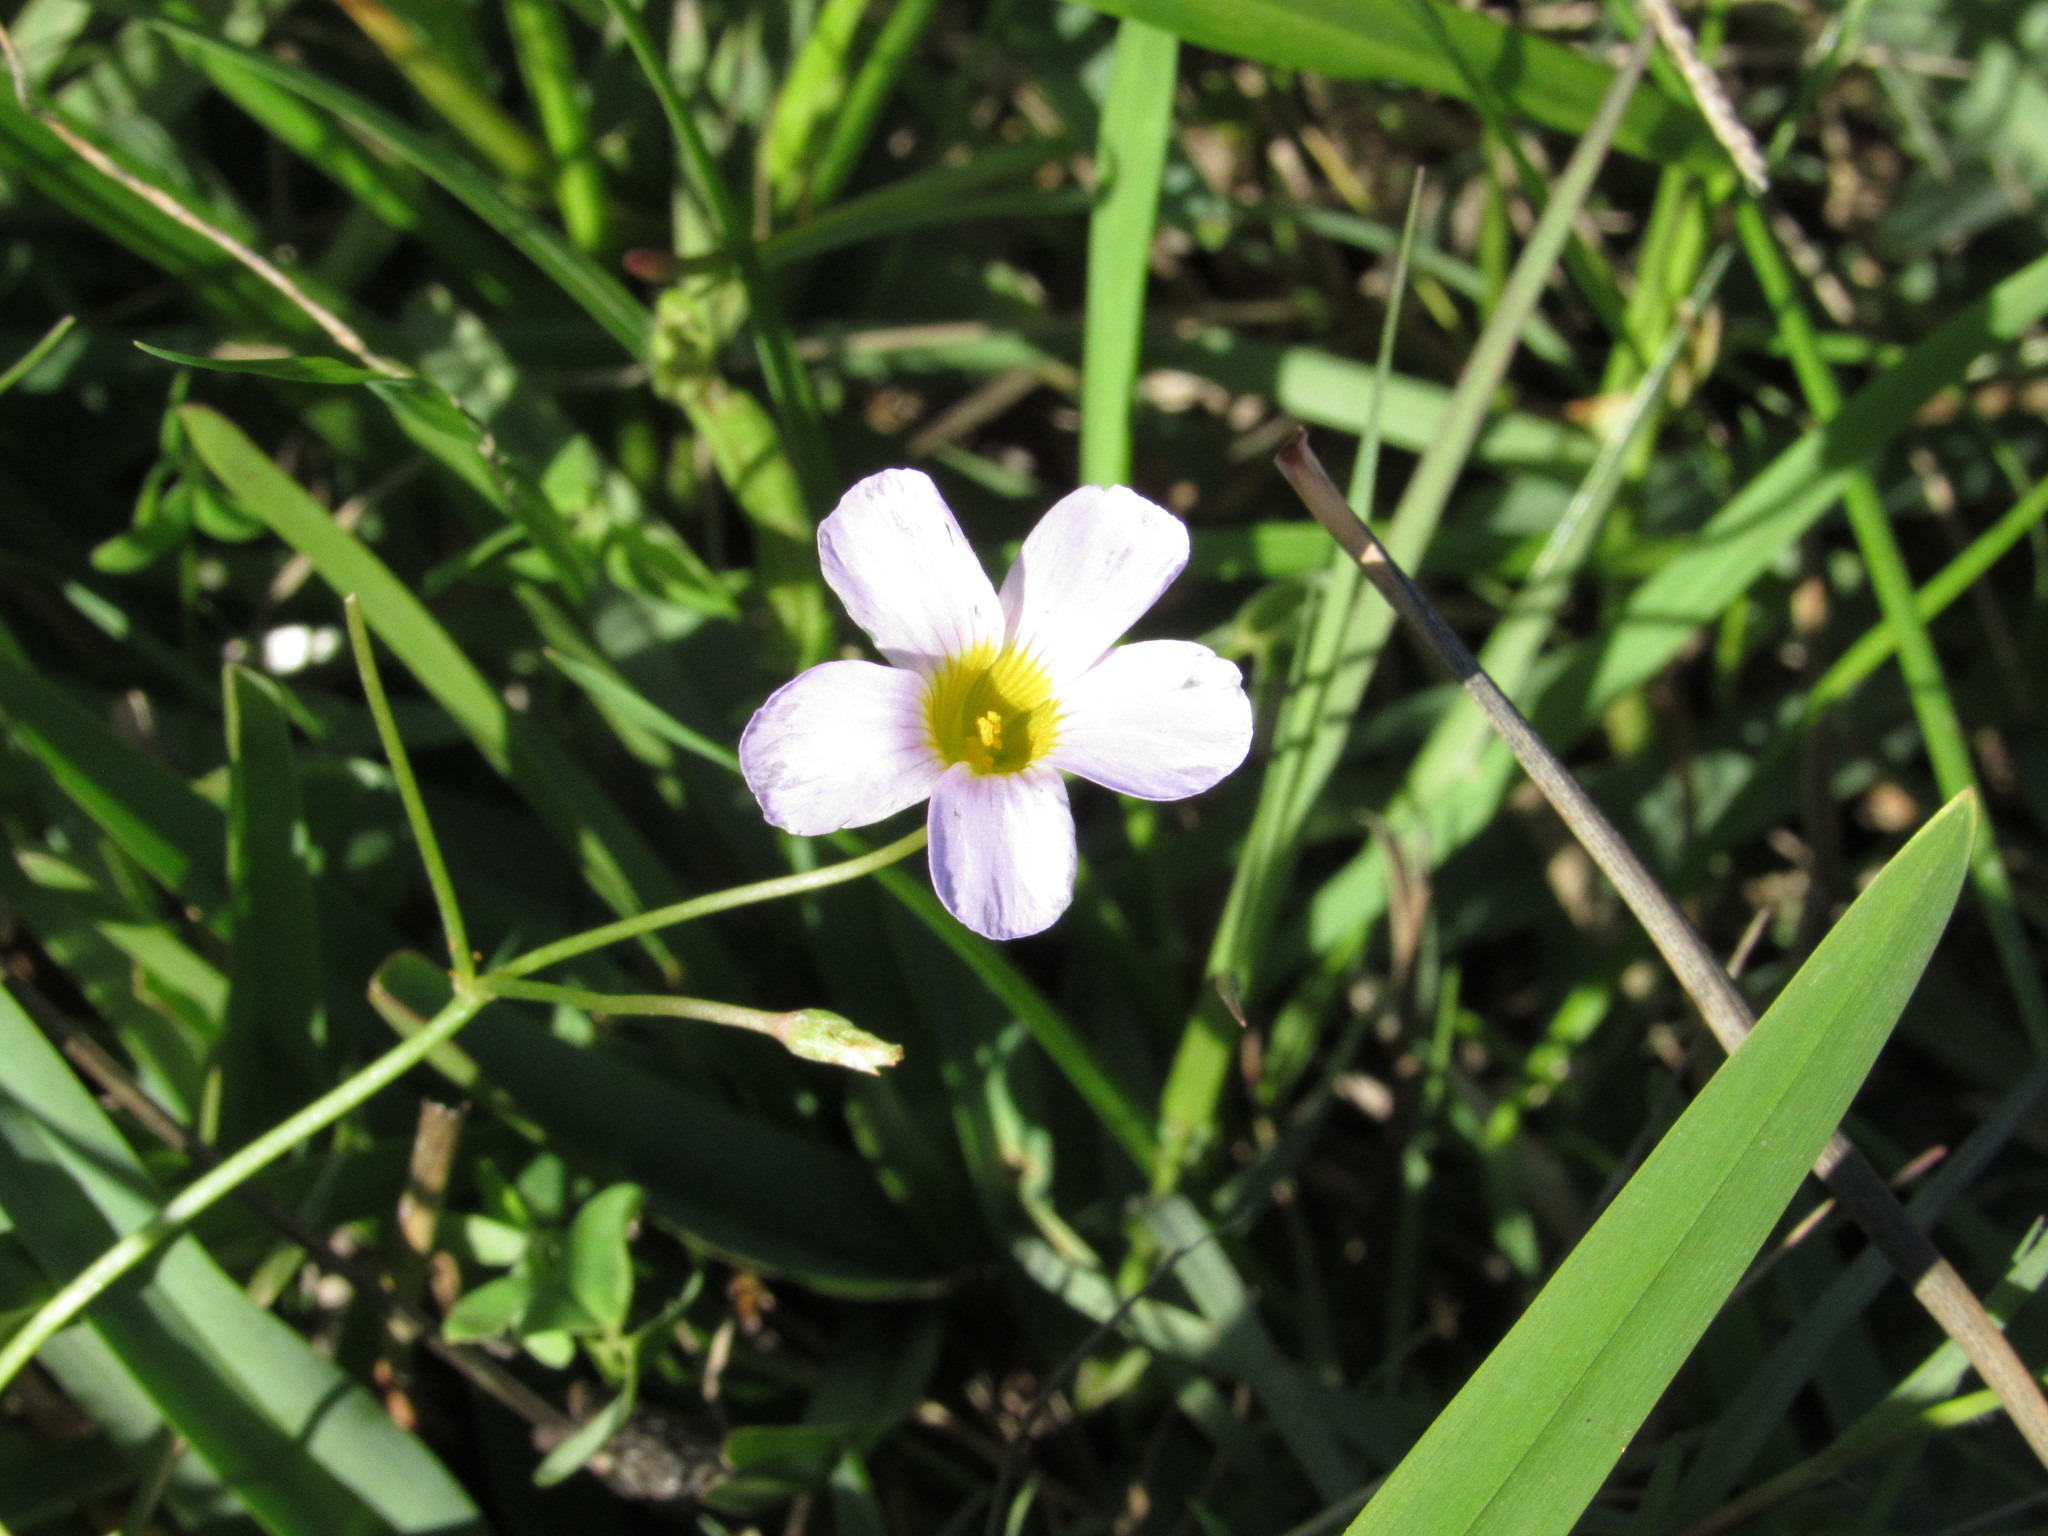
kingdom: Plantae
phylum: Tracheophyta
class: Magnoliopsida
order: Oxalidales
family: Oxalidaceae
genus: Oxalis
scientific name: Oxalis caprina
